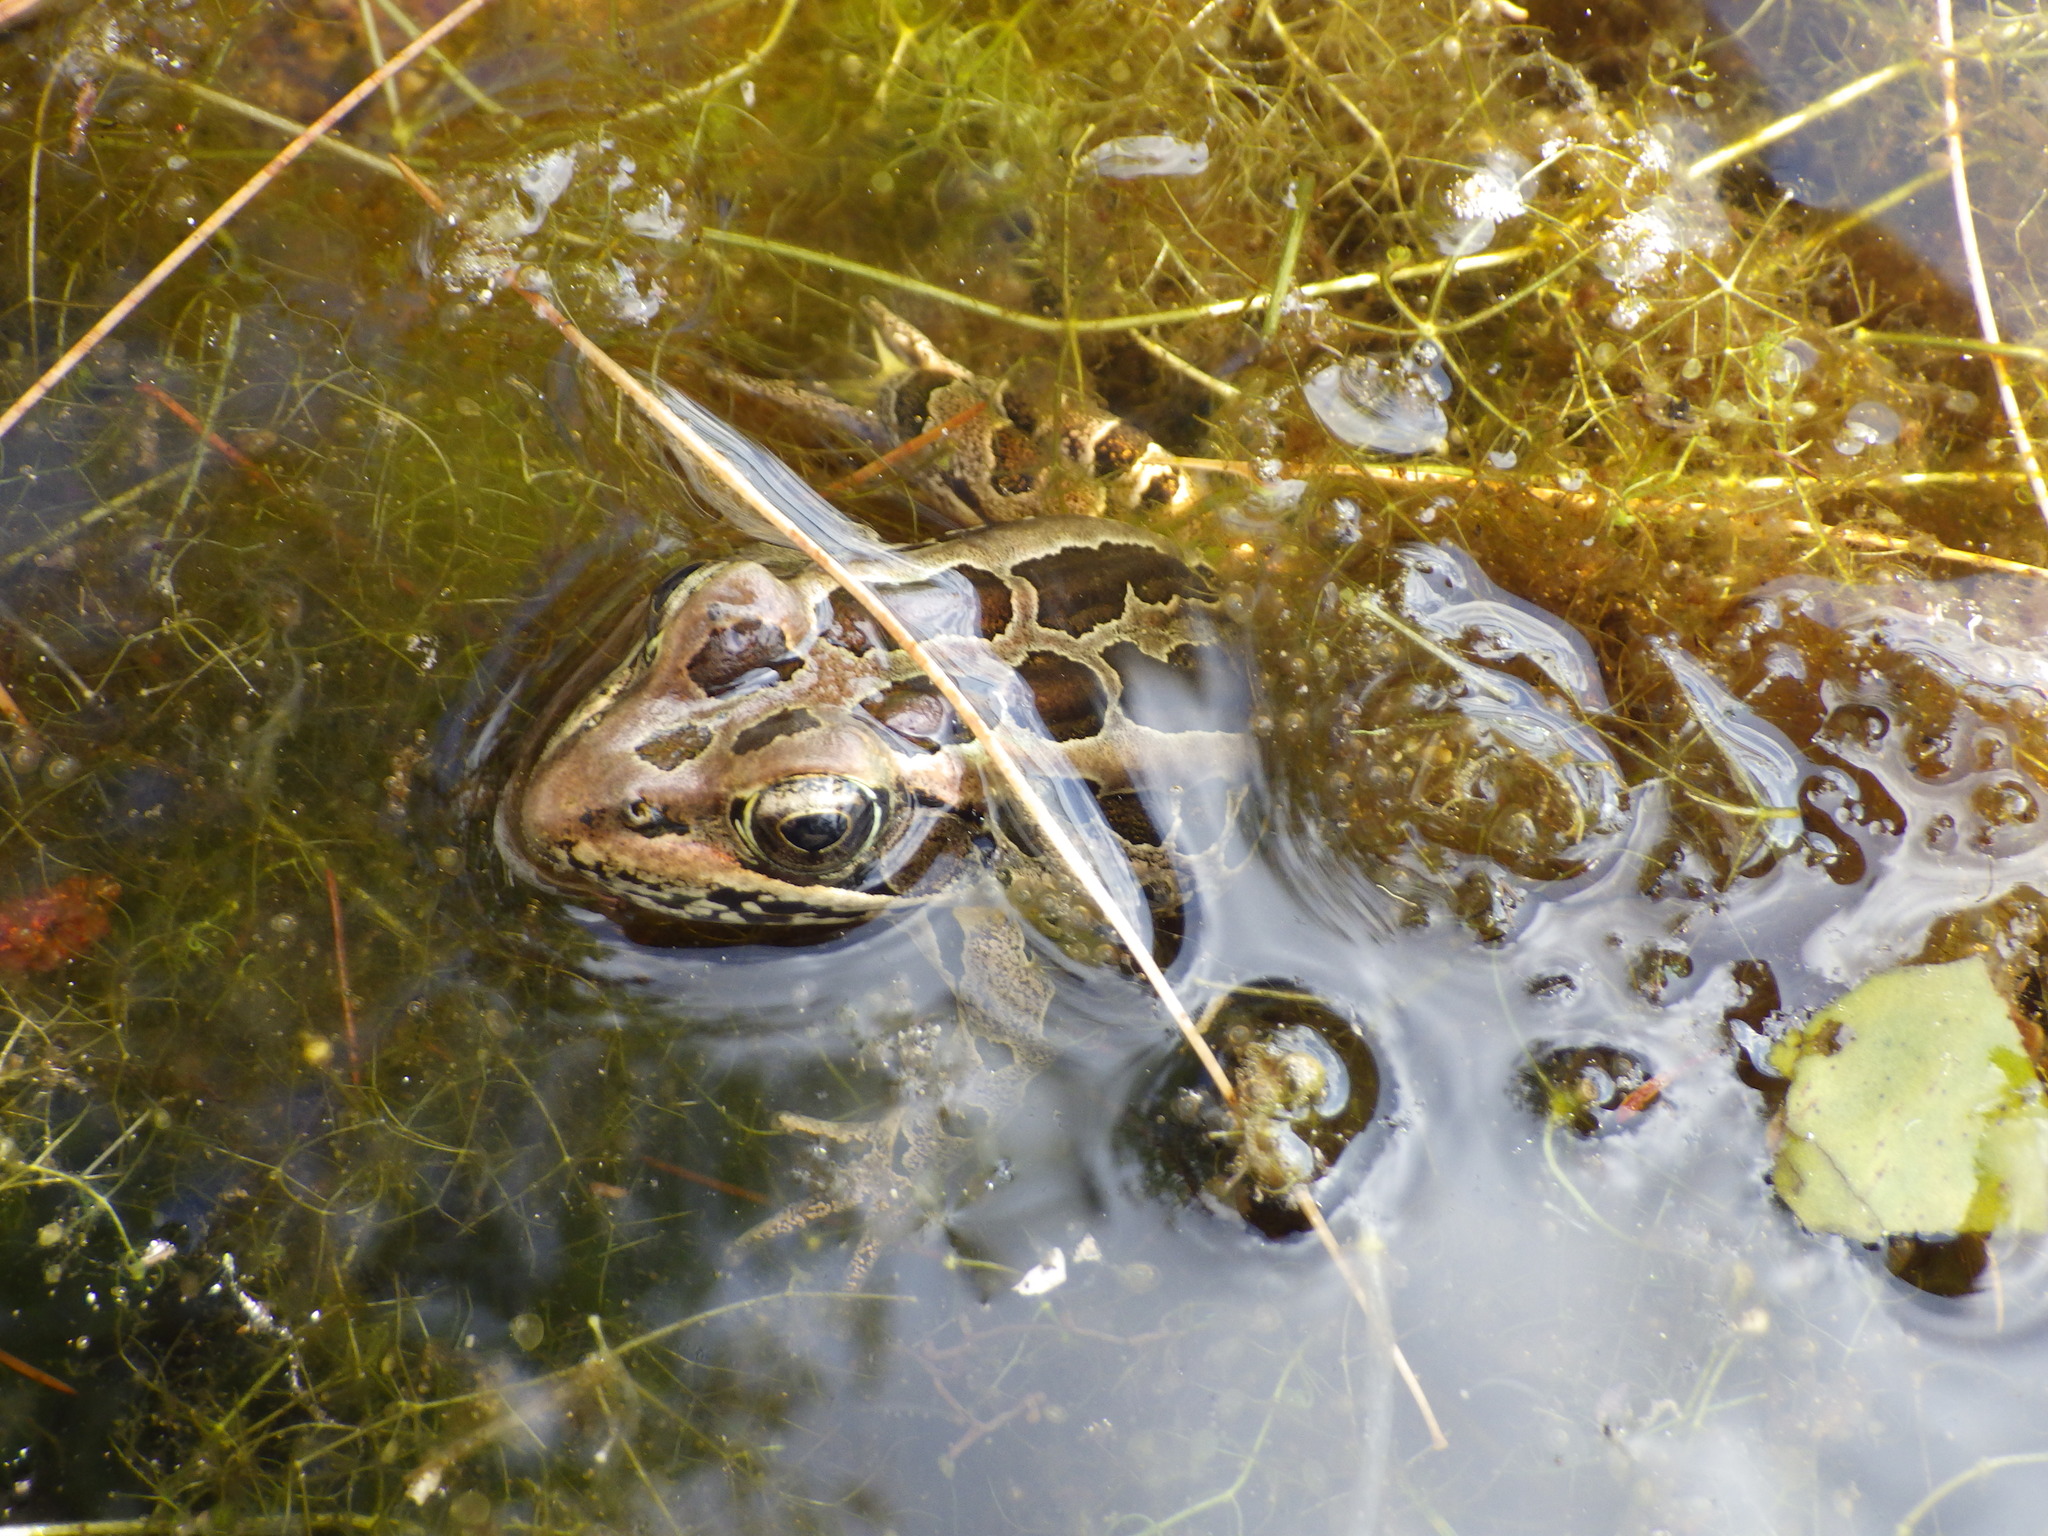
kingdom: Animalia
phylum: Chordata
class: Amphibia
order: Anura
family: Ranidae
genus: Lithobates
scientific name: Lithobates palustris
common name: Pickerel frog
